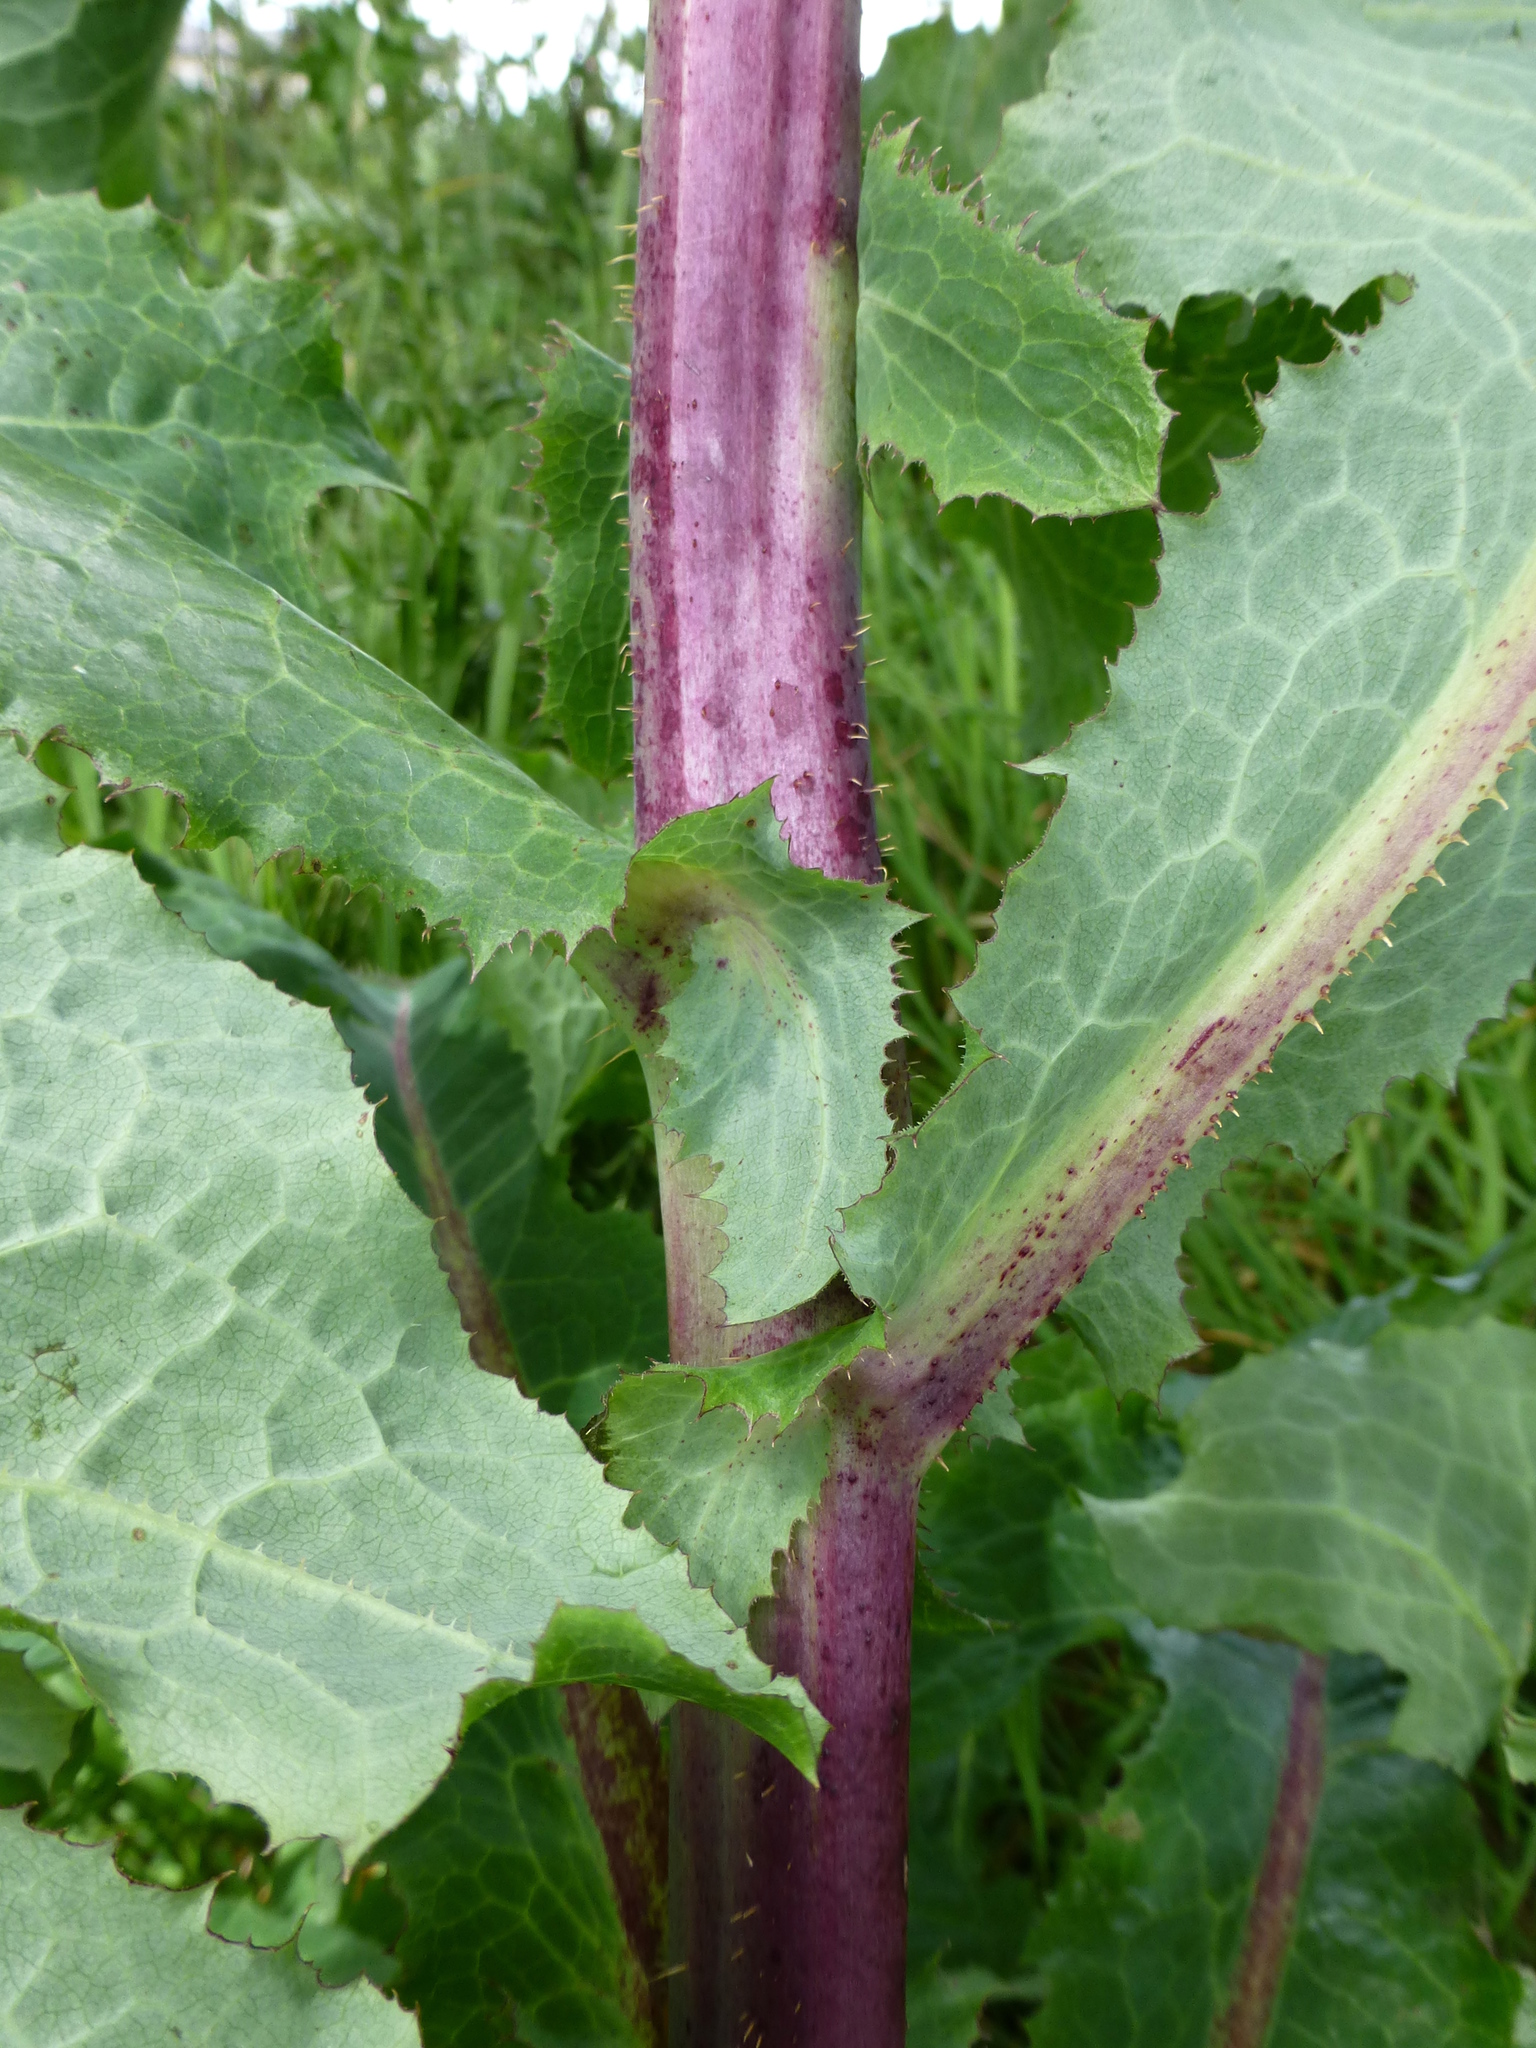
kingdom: Plantae
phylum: Tracheophyta
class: Magnoliopsida
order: Asterales
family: Asteraceae
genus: Lactuca
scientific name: Lactuca serriola
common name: Prickly lettuce
